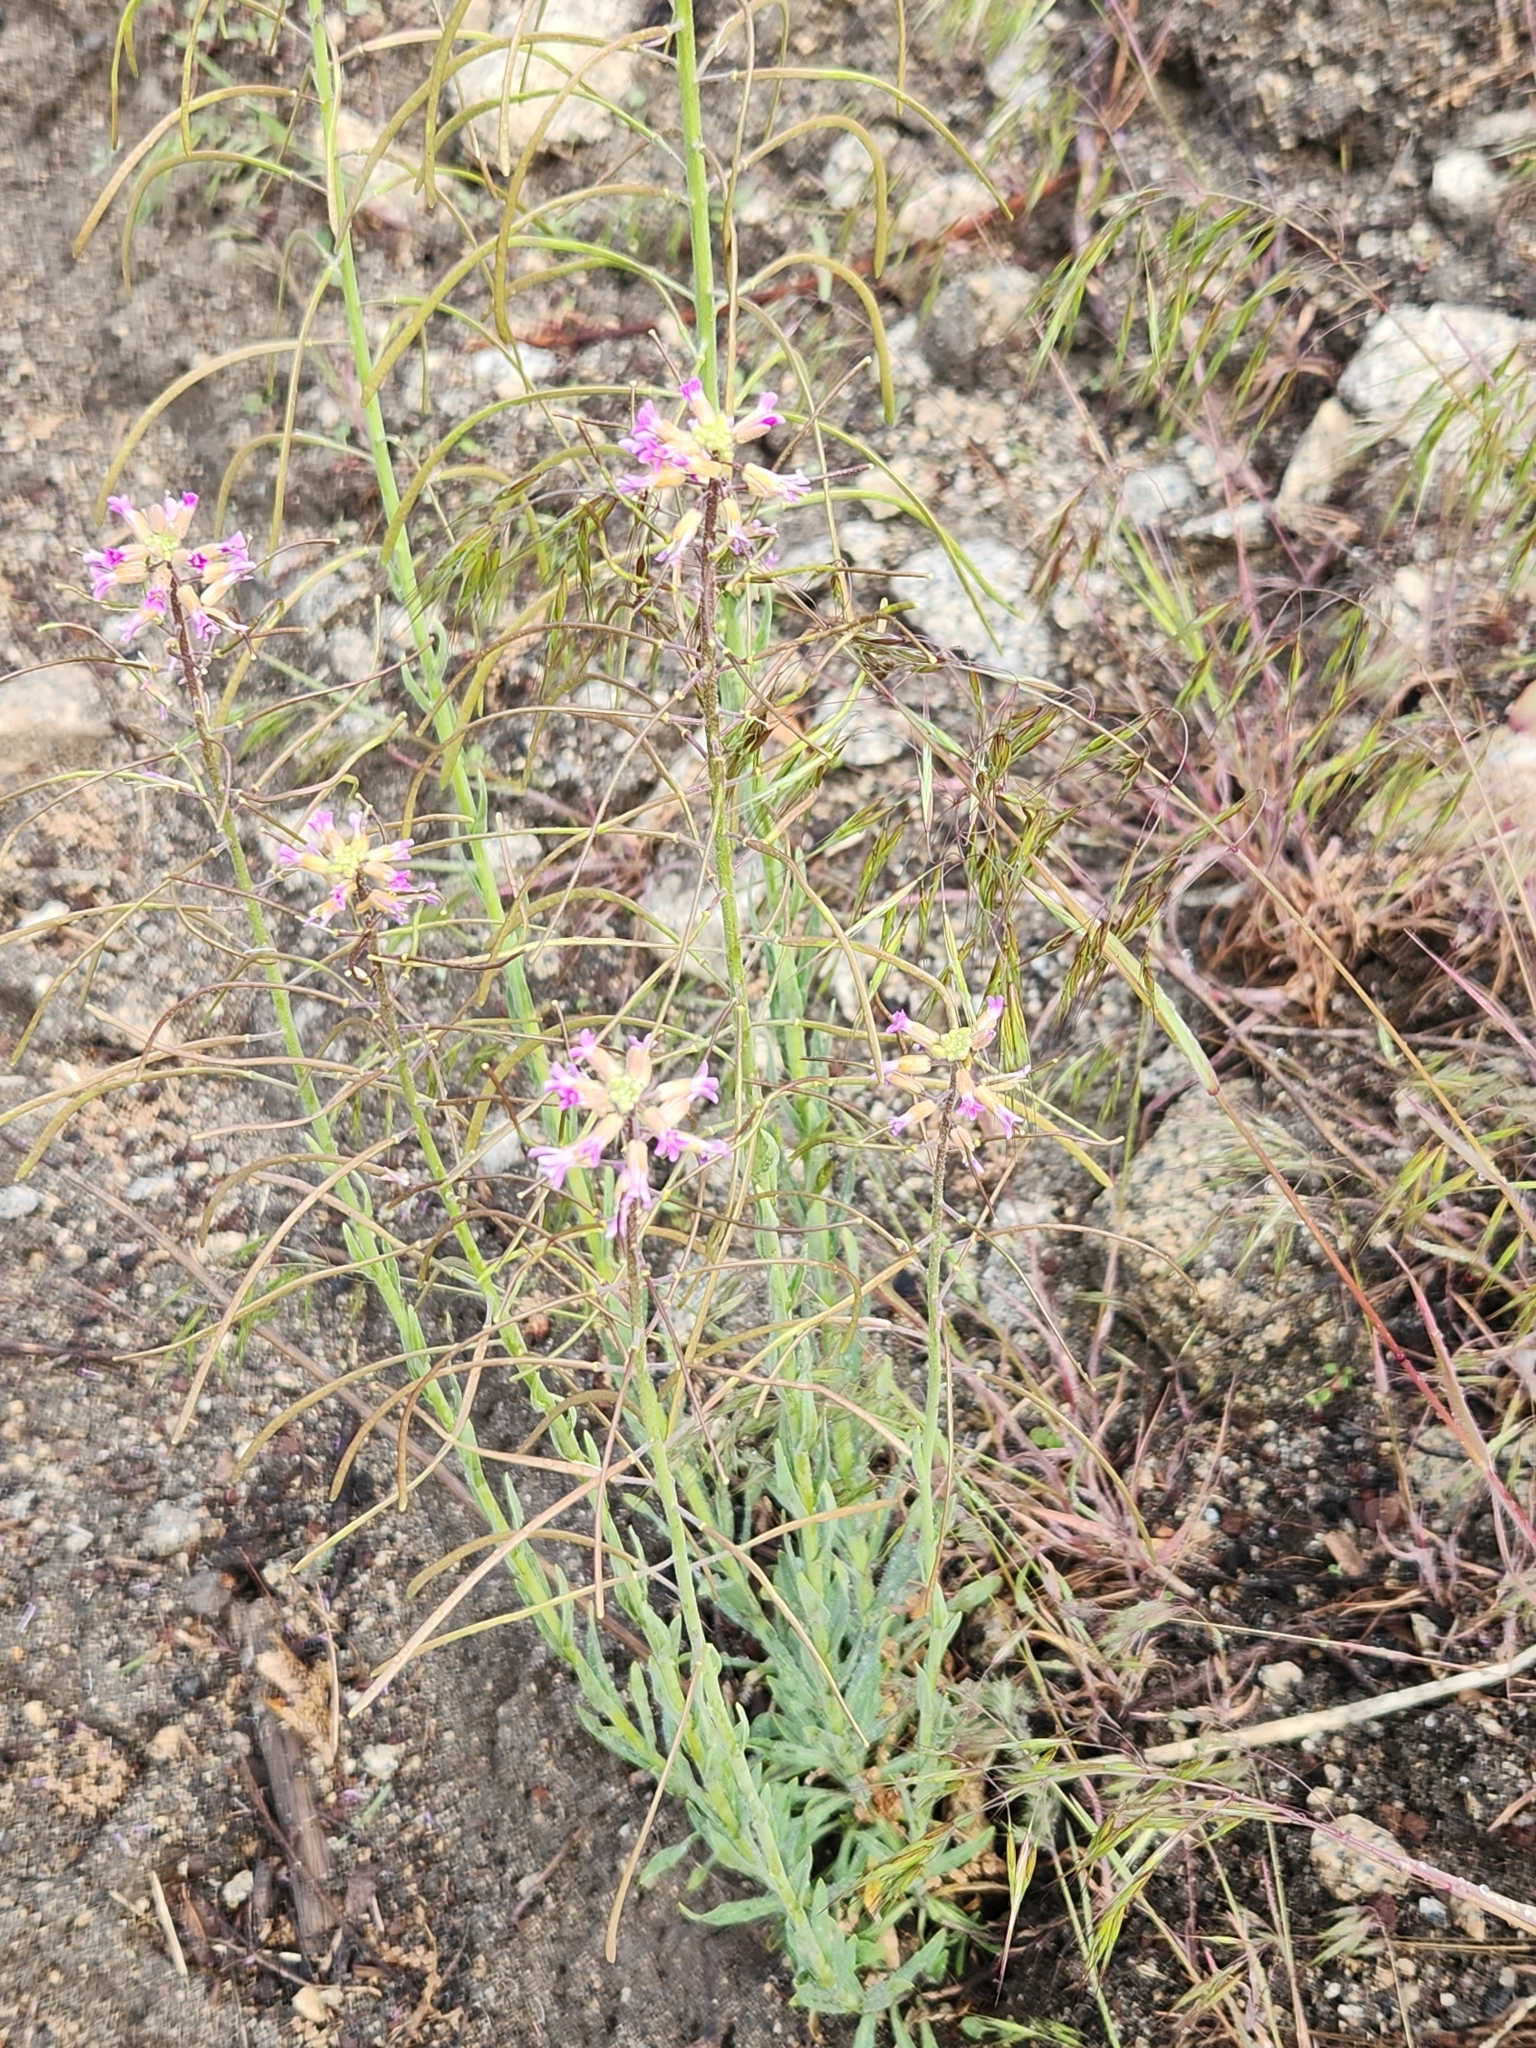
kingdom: Plantae
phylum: Tracheophyta
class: Magnoliopsida
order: Brassicales
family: Brassicaceae
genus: Boechera
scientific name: Boechera californica
